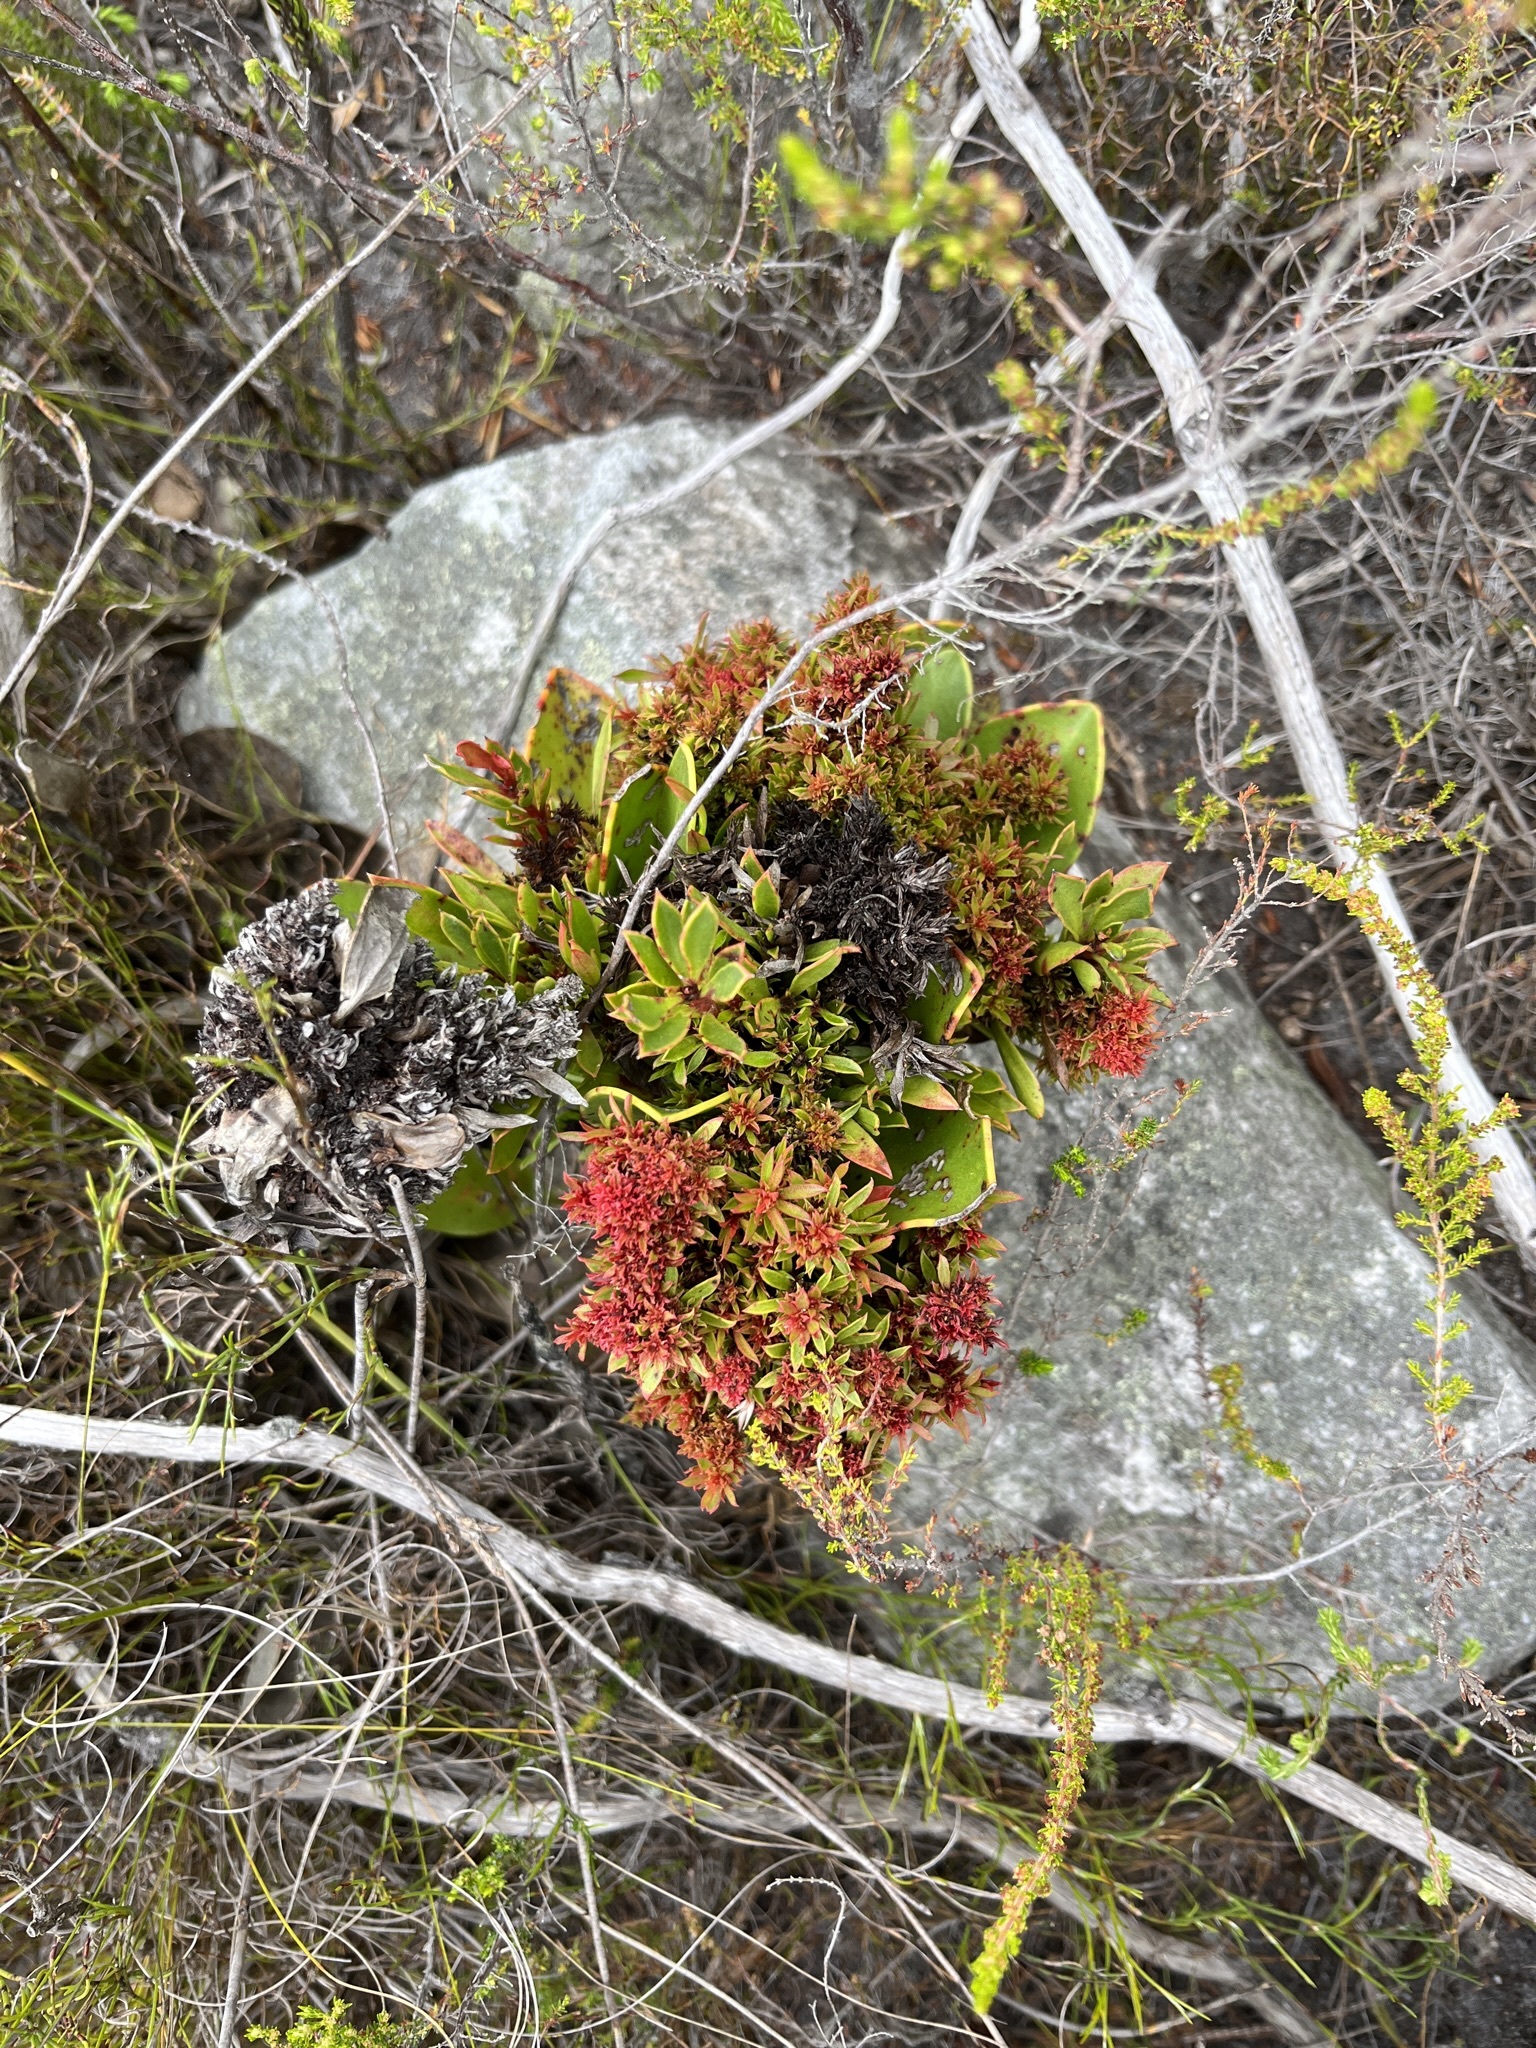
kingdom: Bacteria
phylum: Firmicutes
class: Bacilli
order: Acholeplasmatales
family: Acholeplasmataceae
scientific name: Acholeplasmataceae
